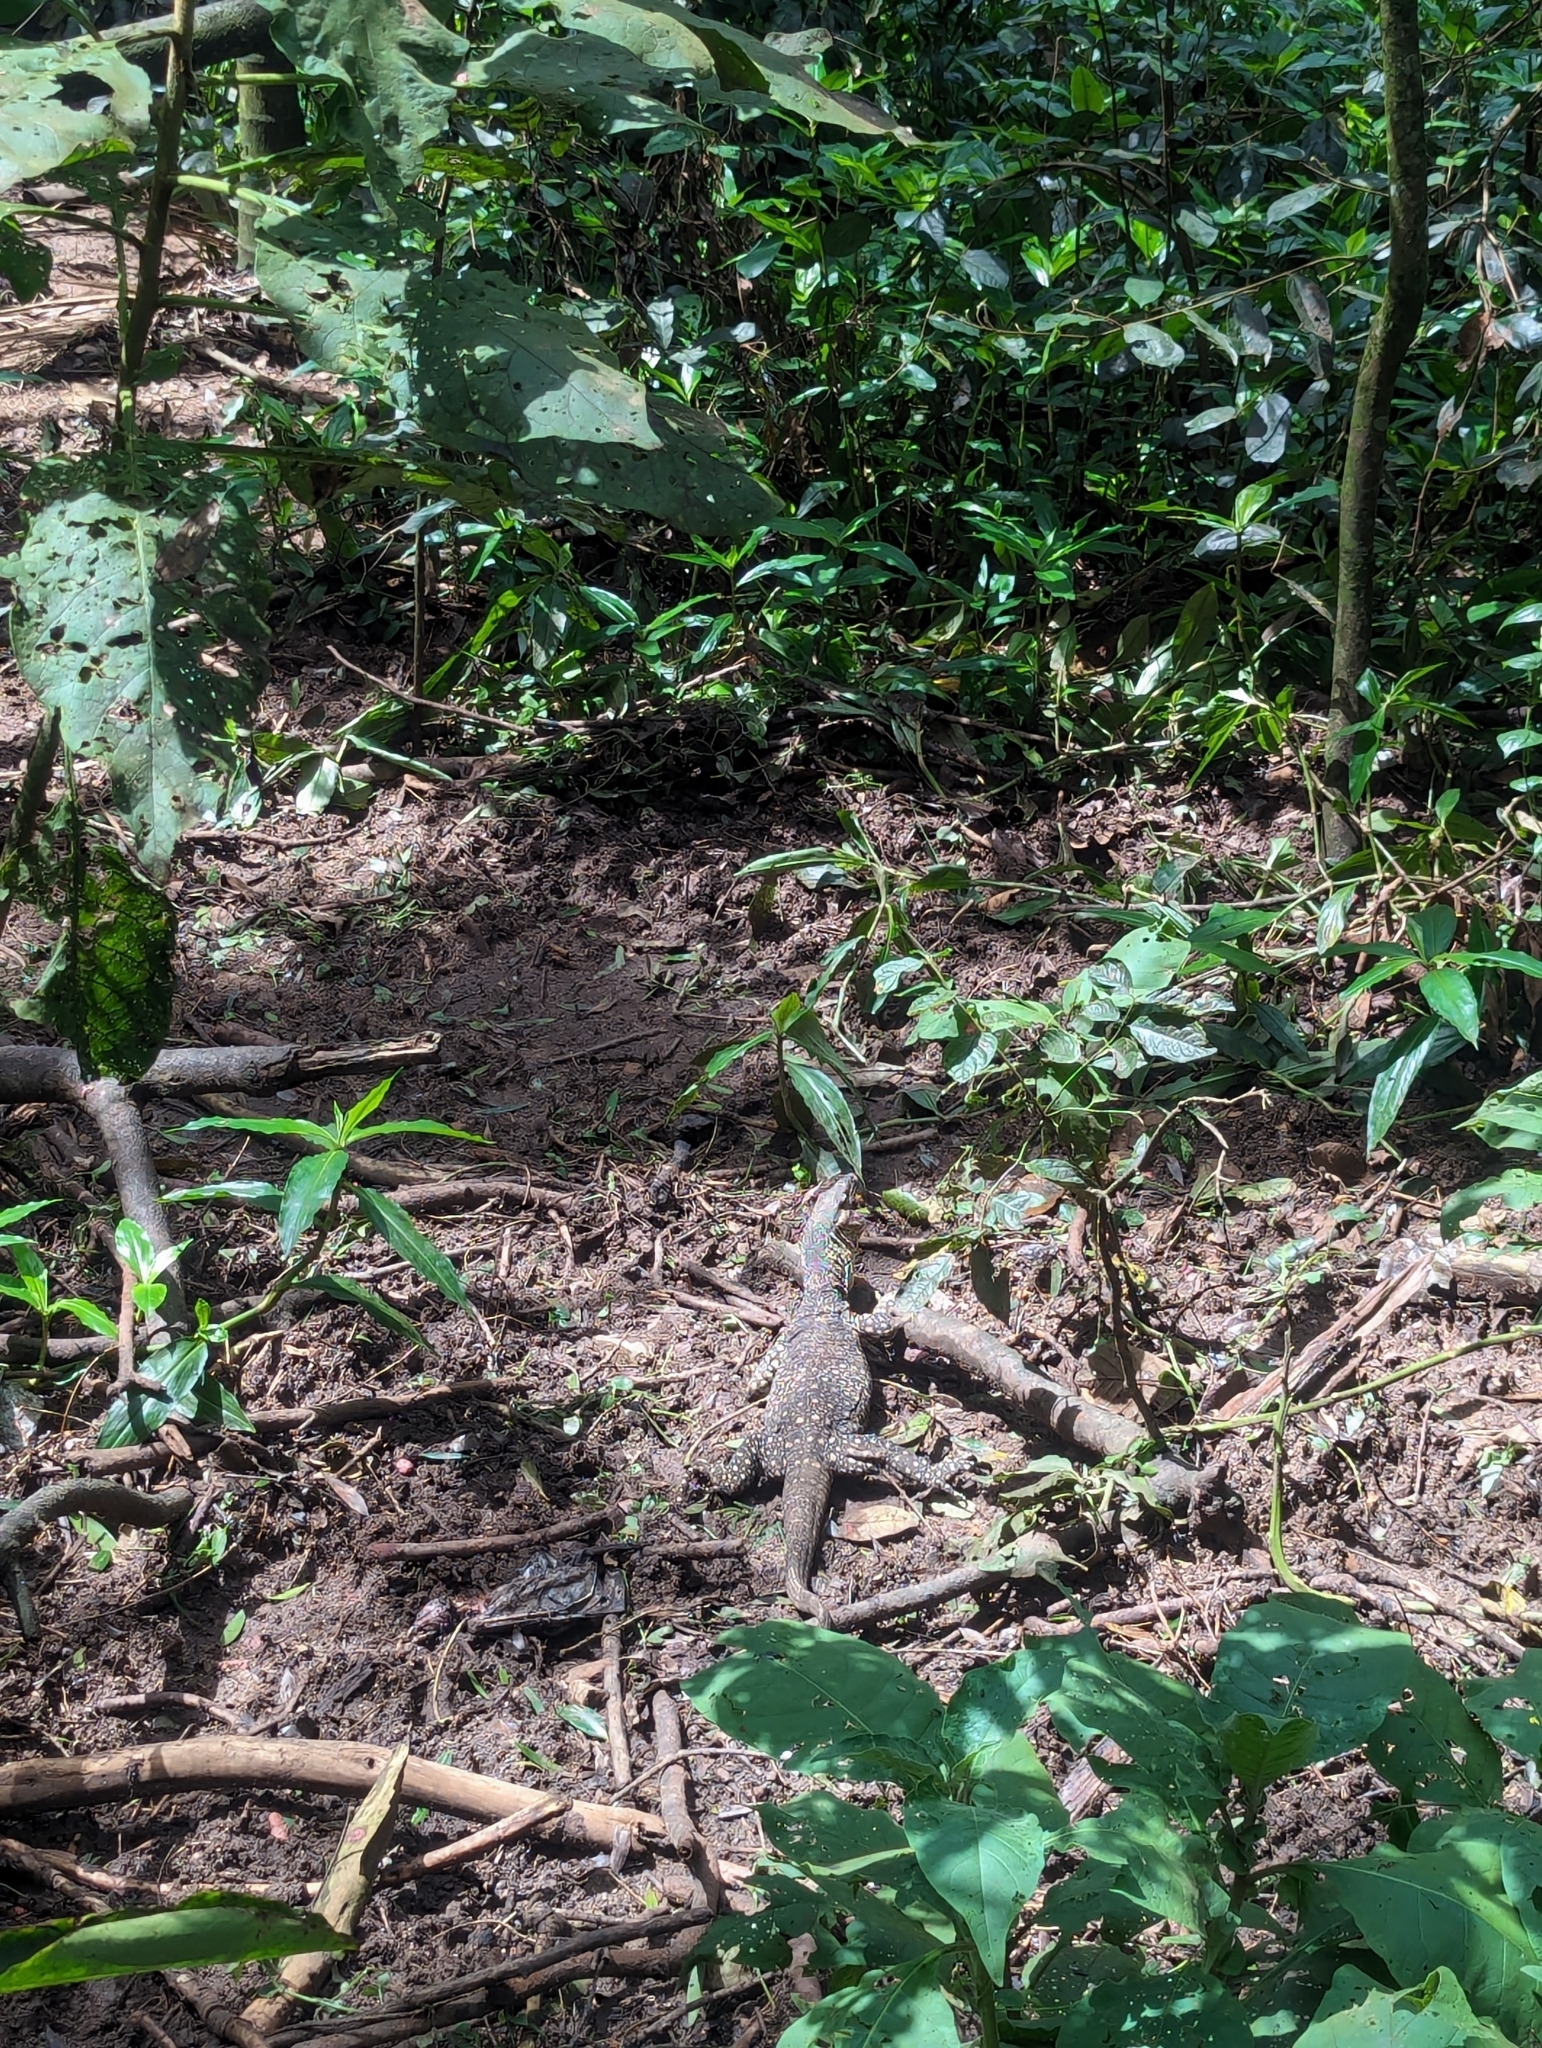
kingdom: Animalia
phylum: Chordata
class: Squamata
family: Varanidae
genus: Varanus
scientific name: Varanus varius
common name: Lace monitor
